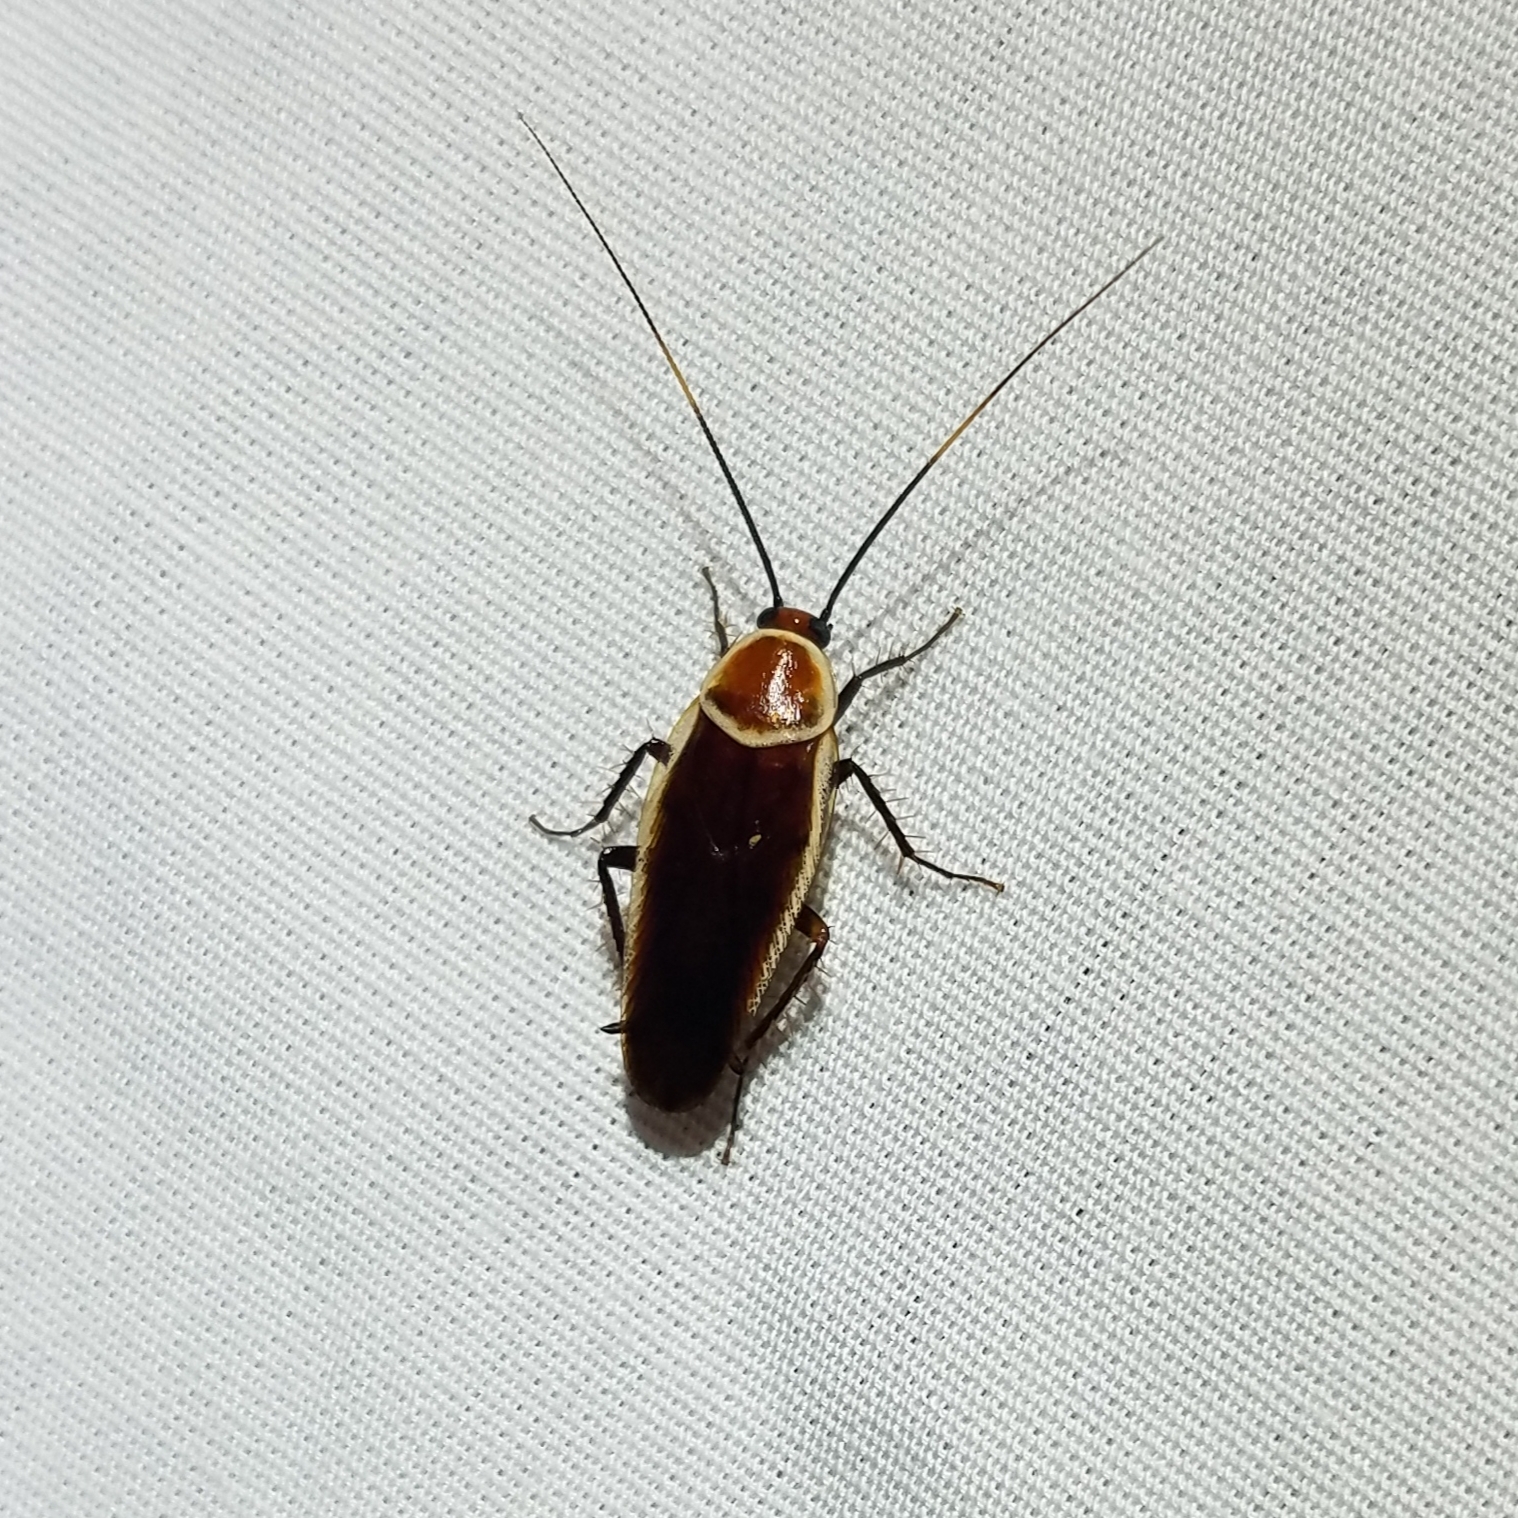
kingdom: Animalia
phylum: Arthropoda
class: Insecta
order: Blattodea
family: Ectobiidae
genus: Pseudomops
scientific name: Pseudomops septentrionalis
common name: Pale-bordered field cockroach
